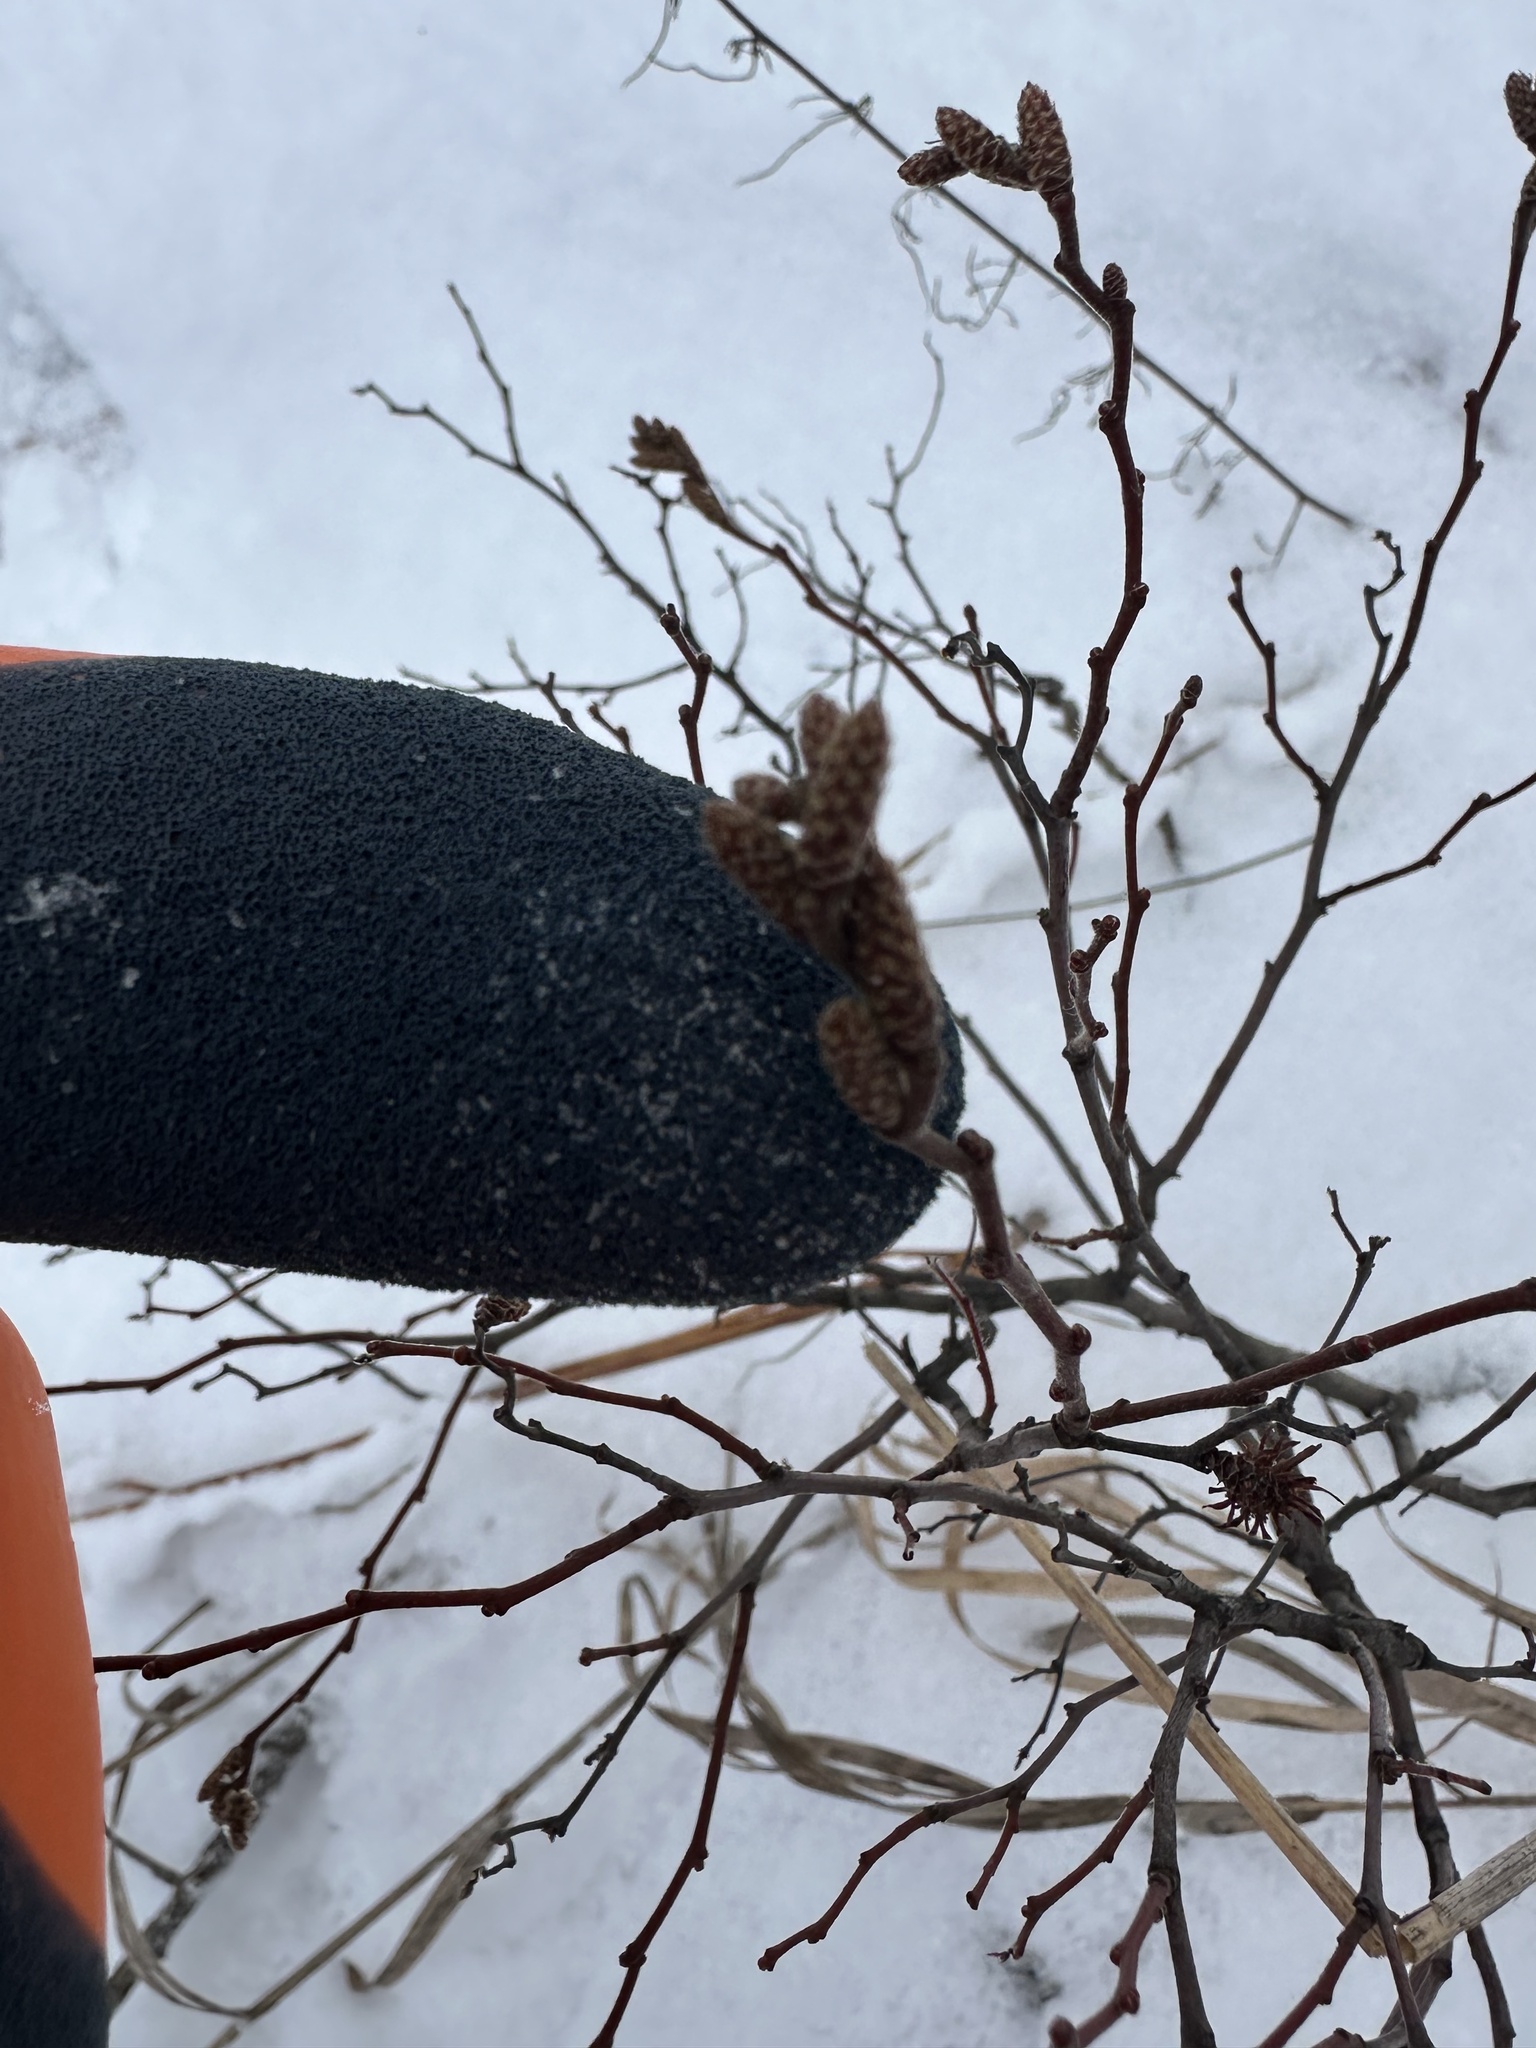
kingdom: Plantae
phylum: Tracheophyta
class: Magnoliopsida
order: Fagales
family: Myricaceae
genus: Comptonia
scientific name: Comptonia peregrina
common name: Sweet-fern
